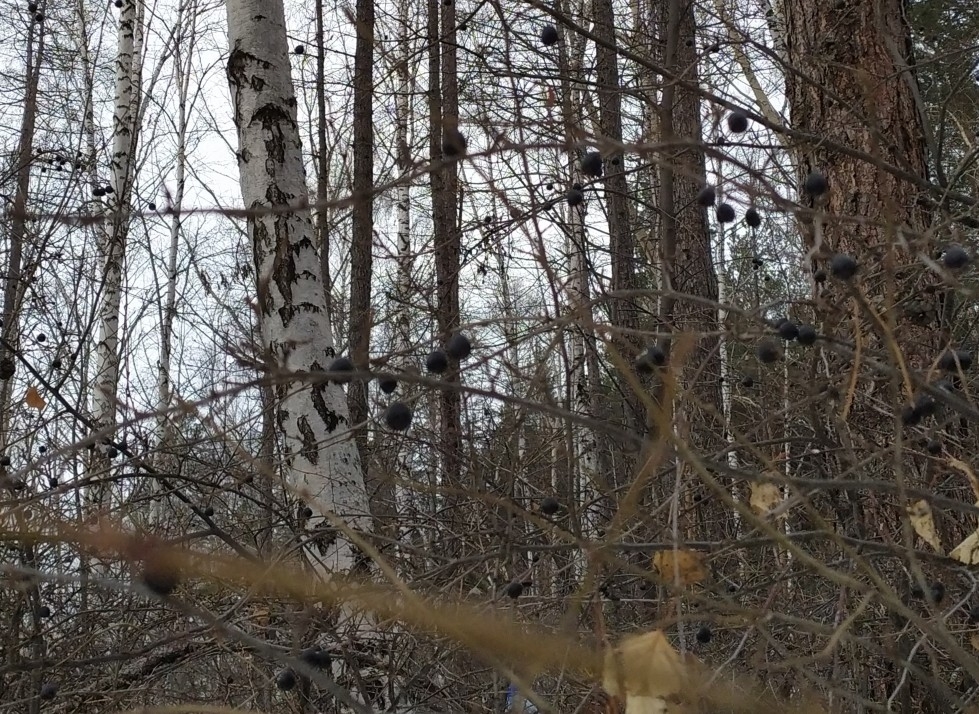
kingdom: Plantae
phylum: Tracheophyta
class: Magnoliopsida
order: Rosales
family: Rosaceae
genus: Cotoneaster
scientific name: Cotoneaster acutifolius
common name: Peking cotoneaster
